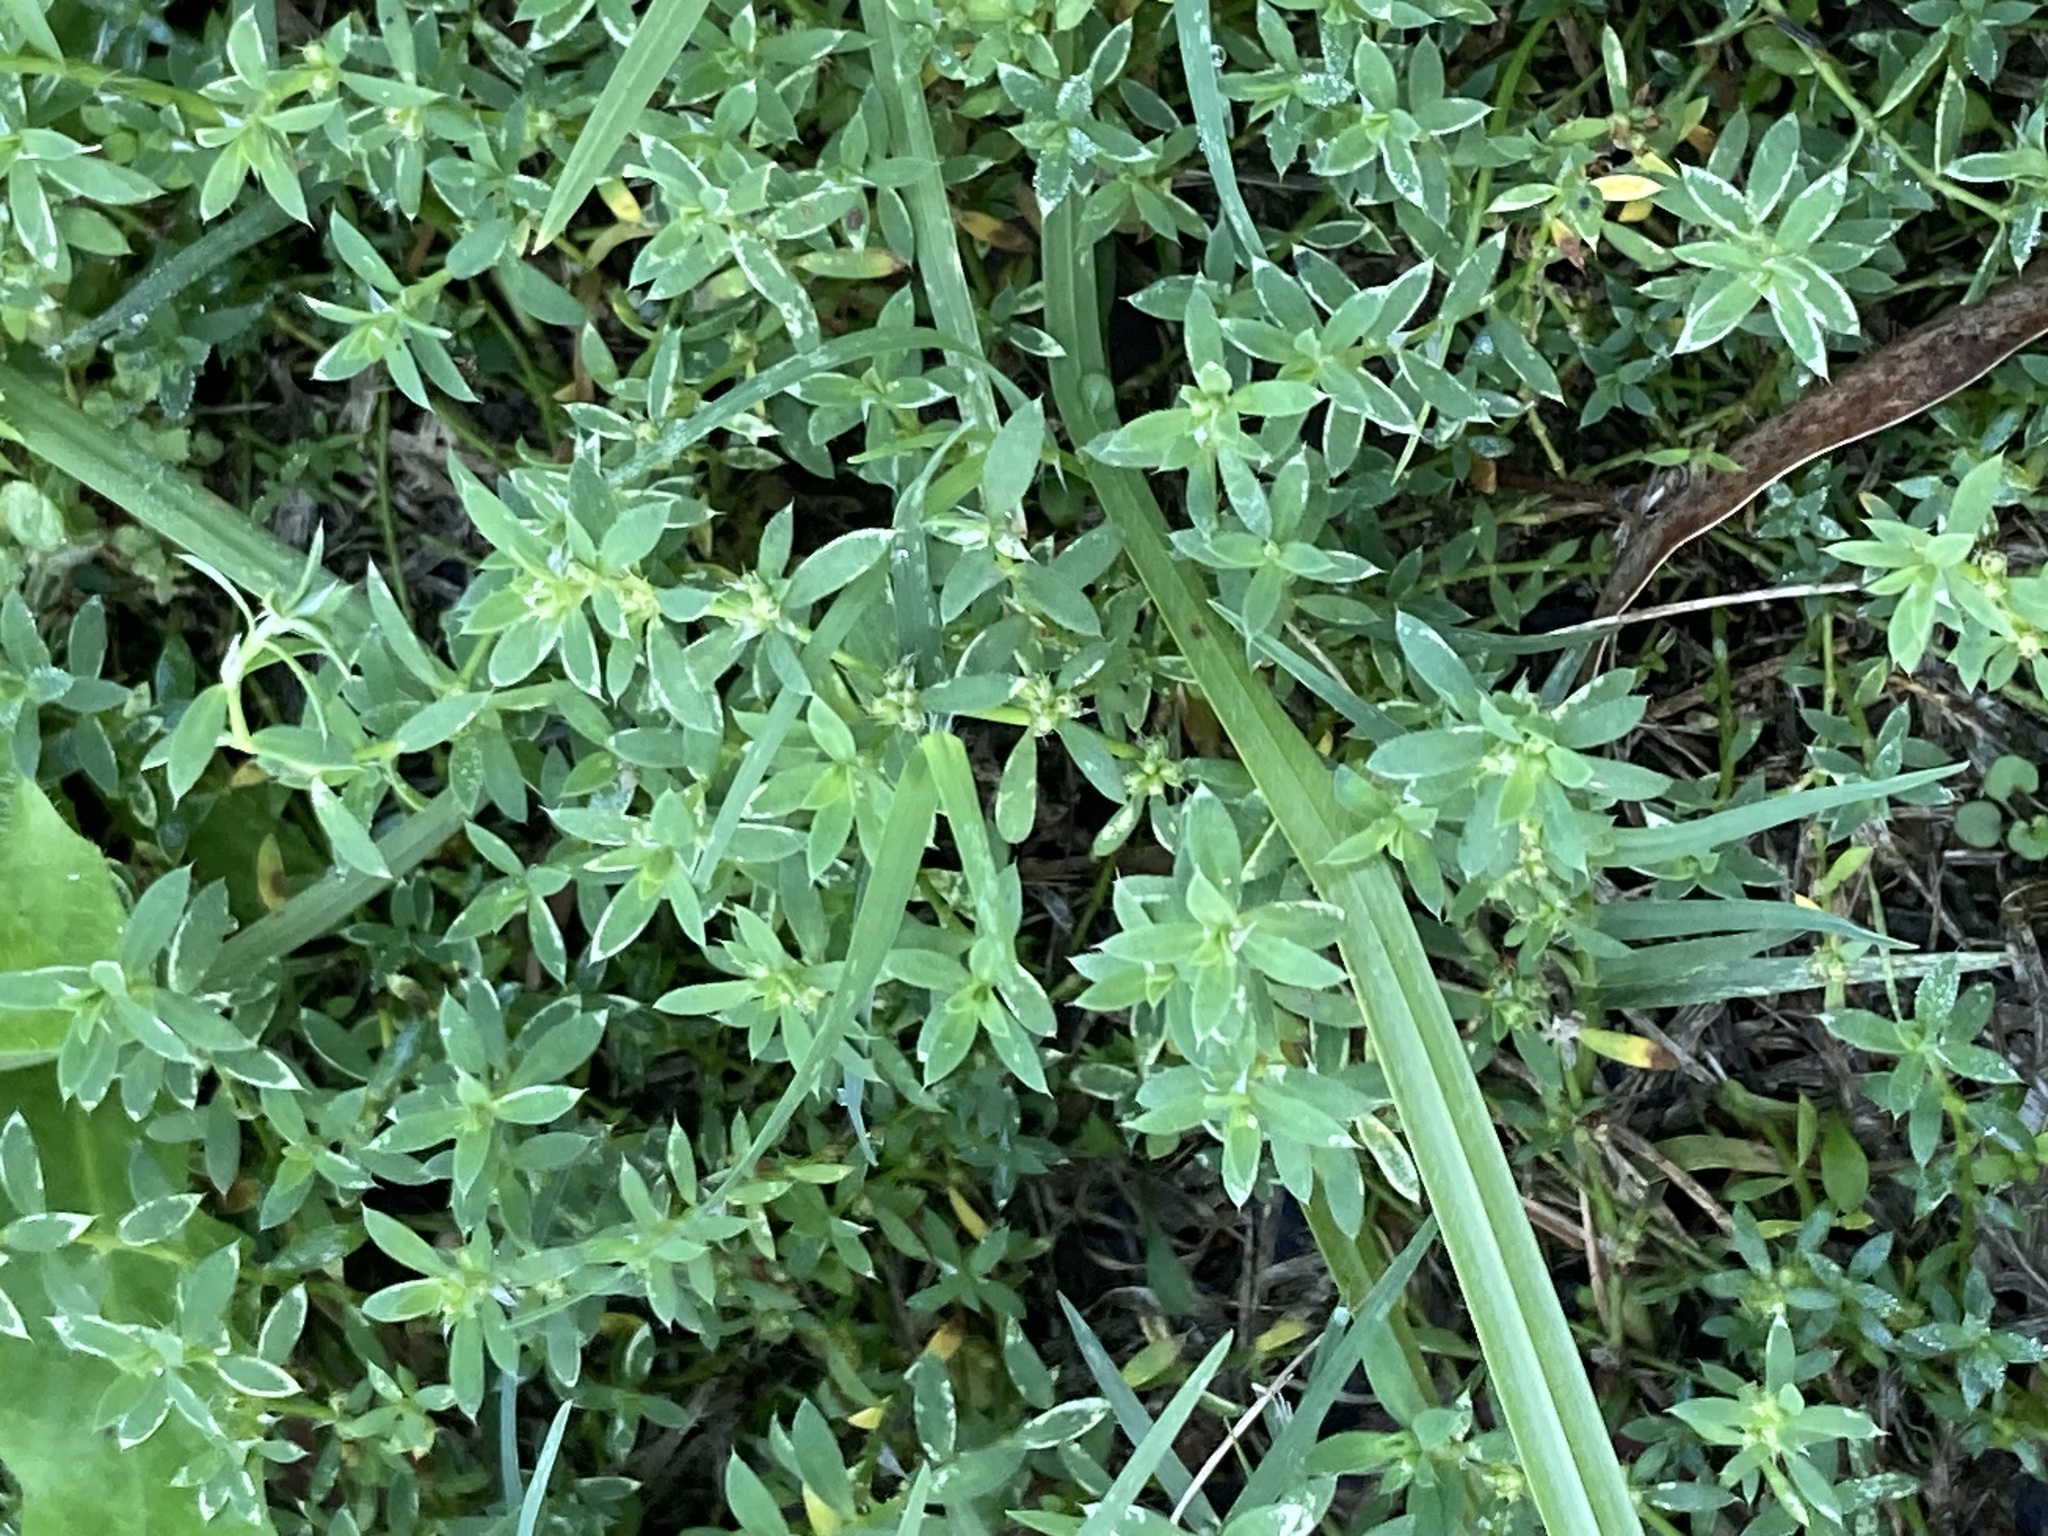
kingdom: Plantae
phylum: Tracheophyta
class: Magnoliopsida
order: Caryophyllales
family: Caryophyllaceae
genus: Paronychia
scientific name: Paronychia brasiliana
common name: Brazilian whitlow
